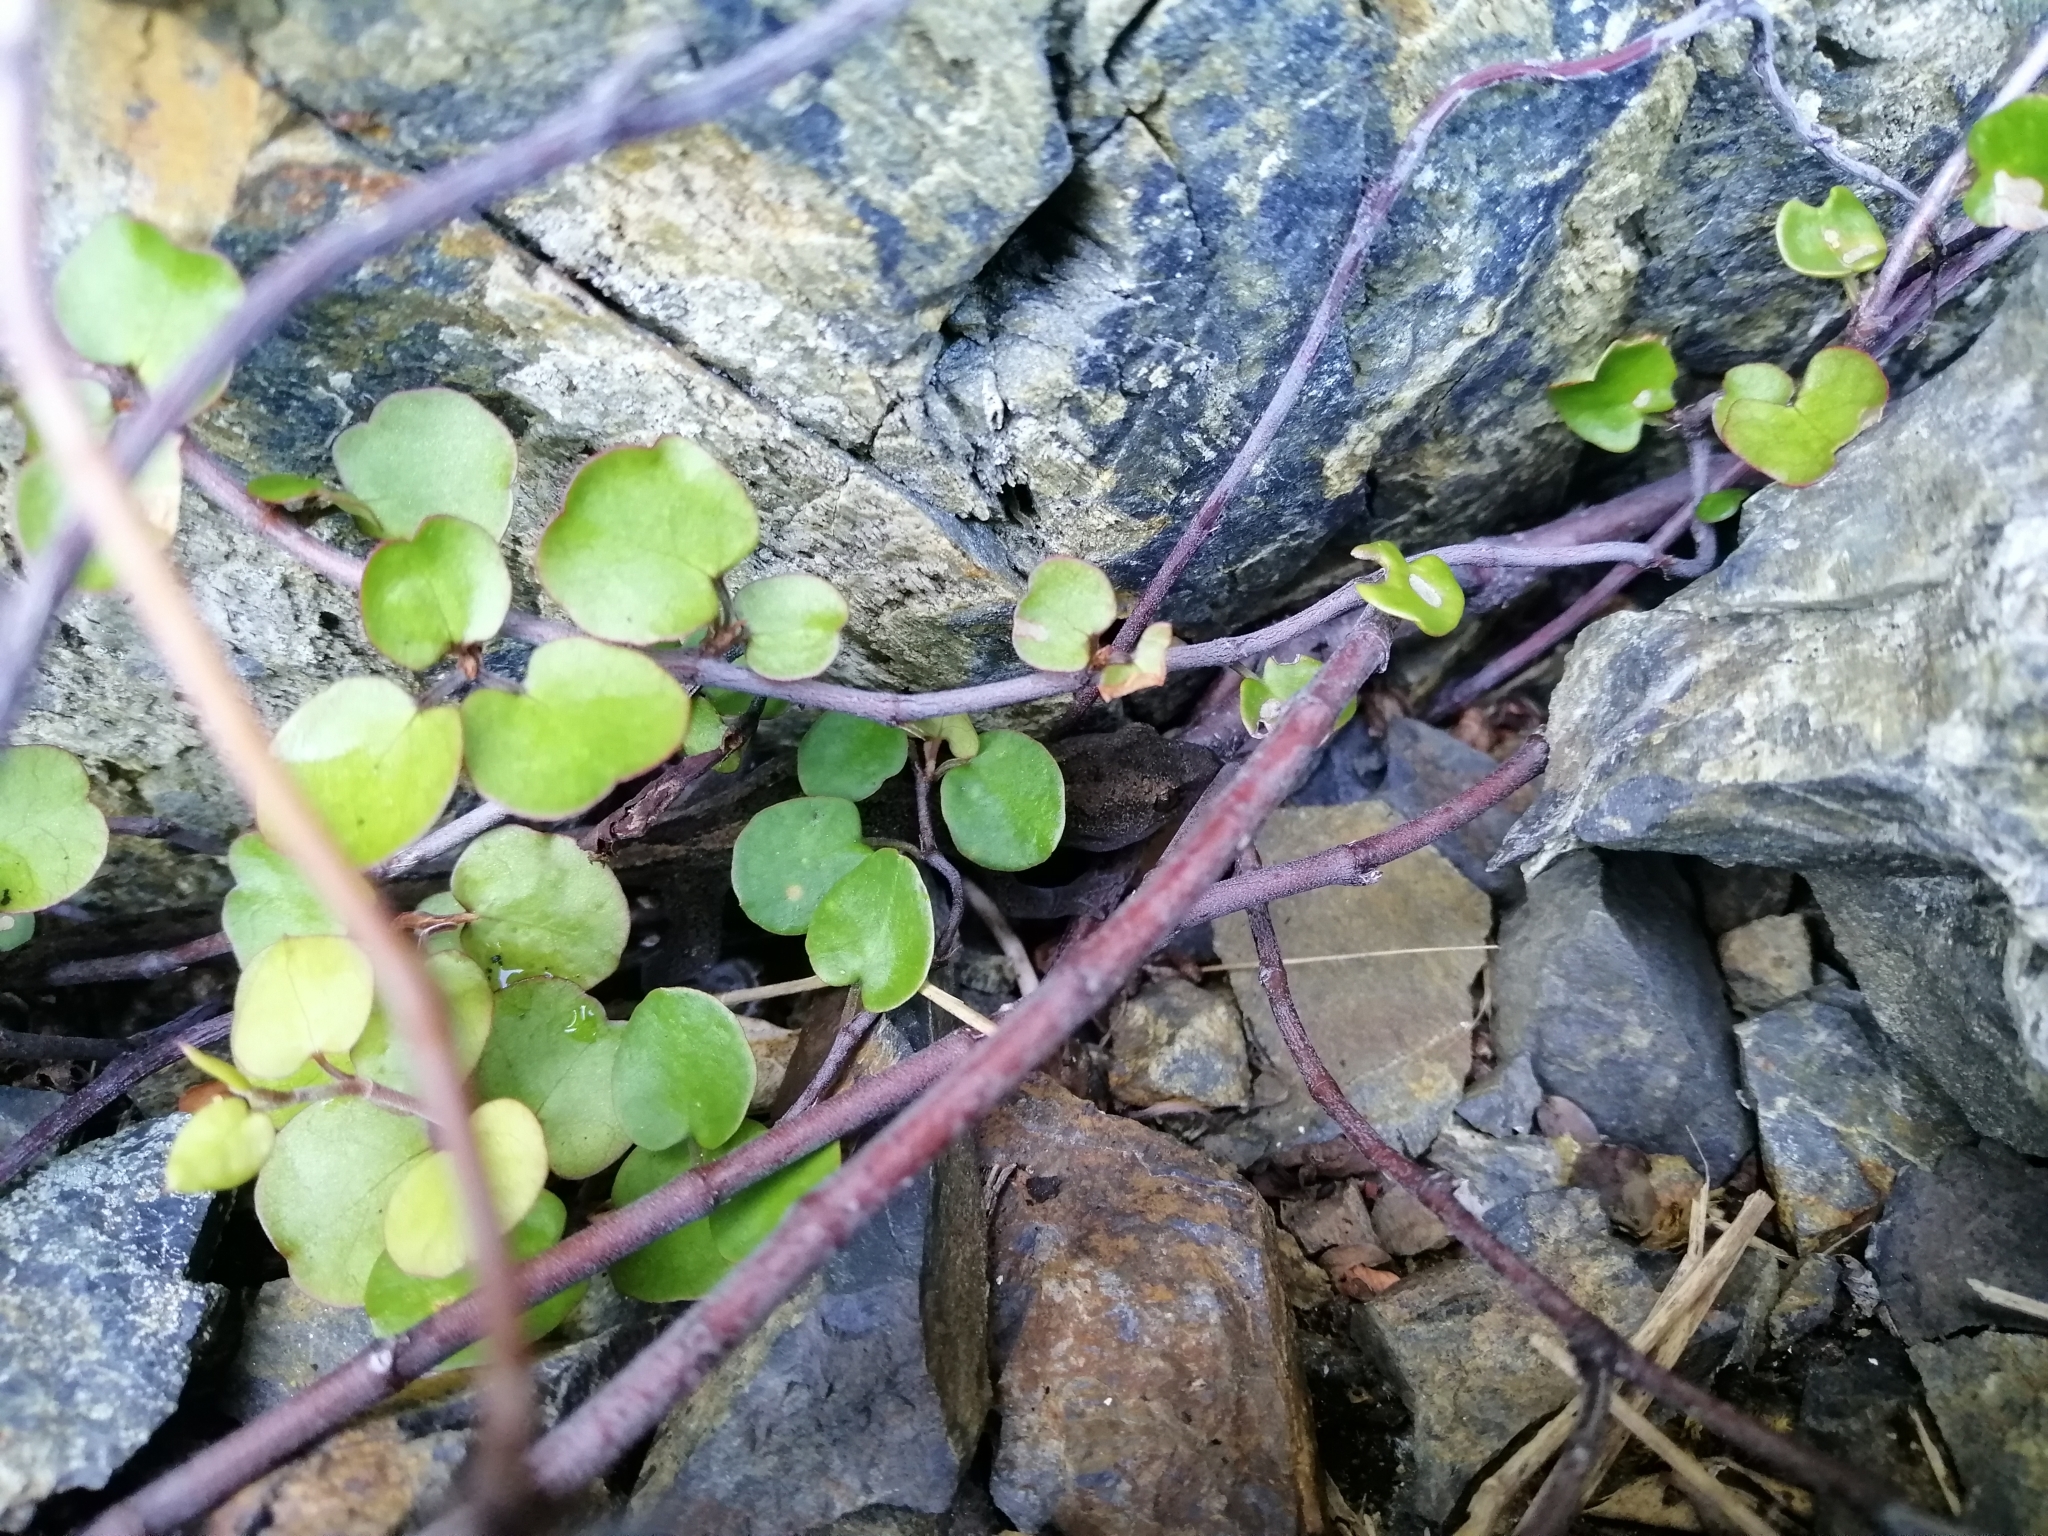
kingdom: Animalia
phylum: Chordata
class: Squamata
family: Diplodactylidae
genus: Woodworthia
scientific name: Woodworthia maculata
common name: Raukawa gecko
